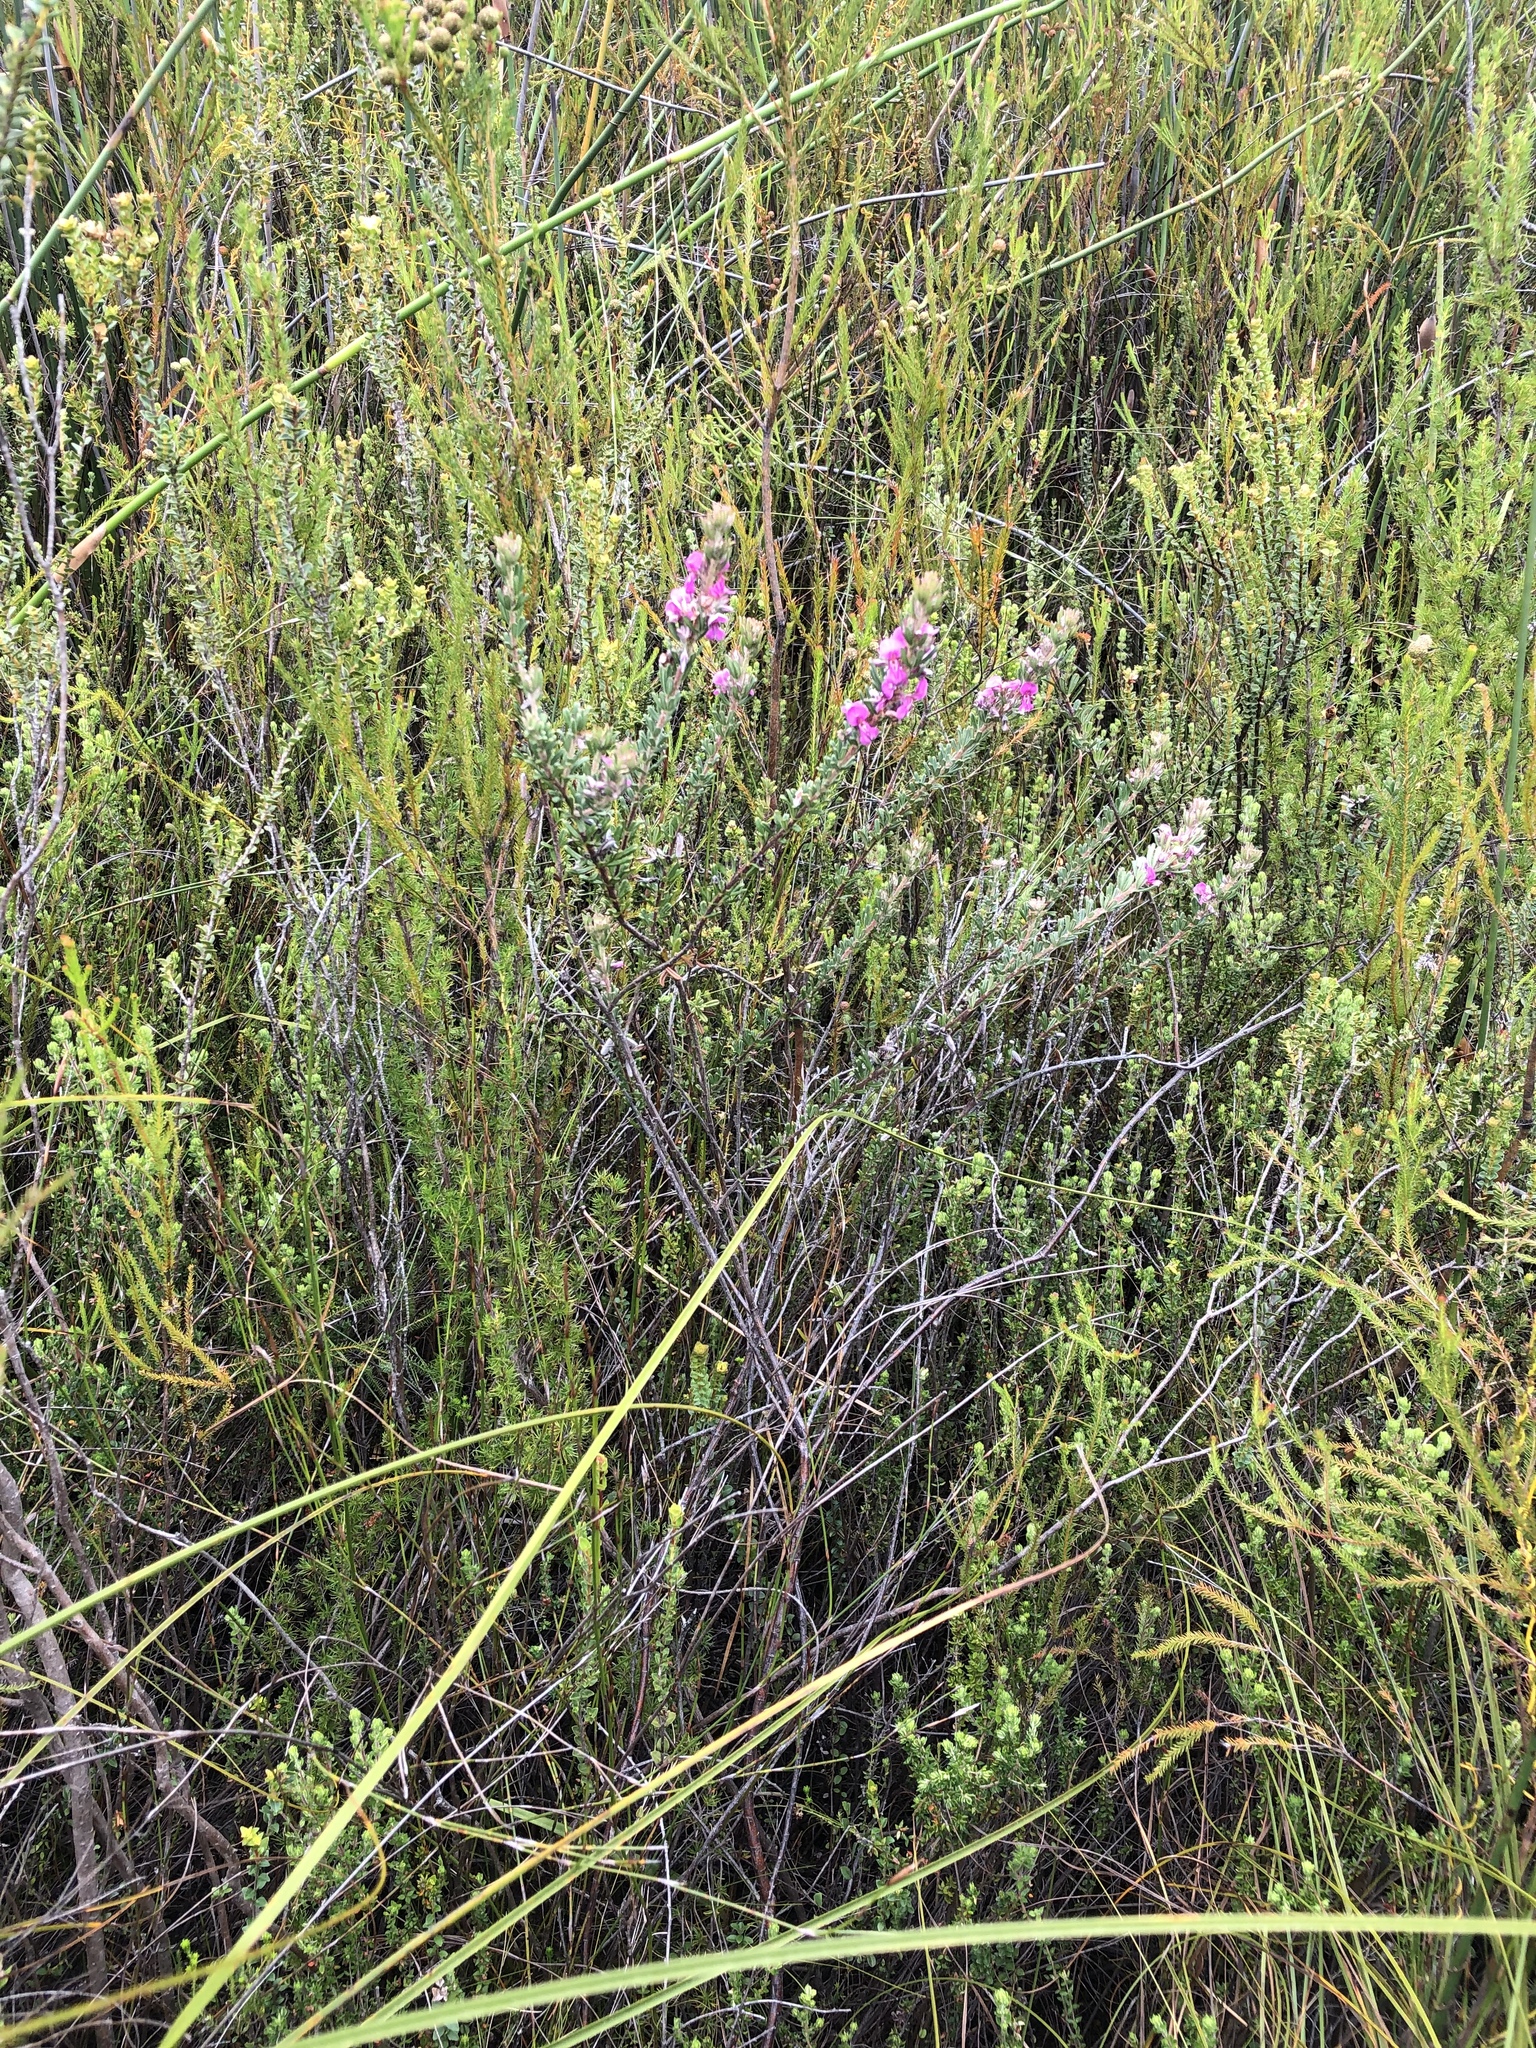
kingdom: Plantae
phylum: Tracheophyta
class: Magnoliopsida
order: Fabales
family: Fabaceae
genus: Indigofera
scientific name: Indigofera rhodantha
